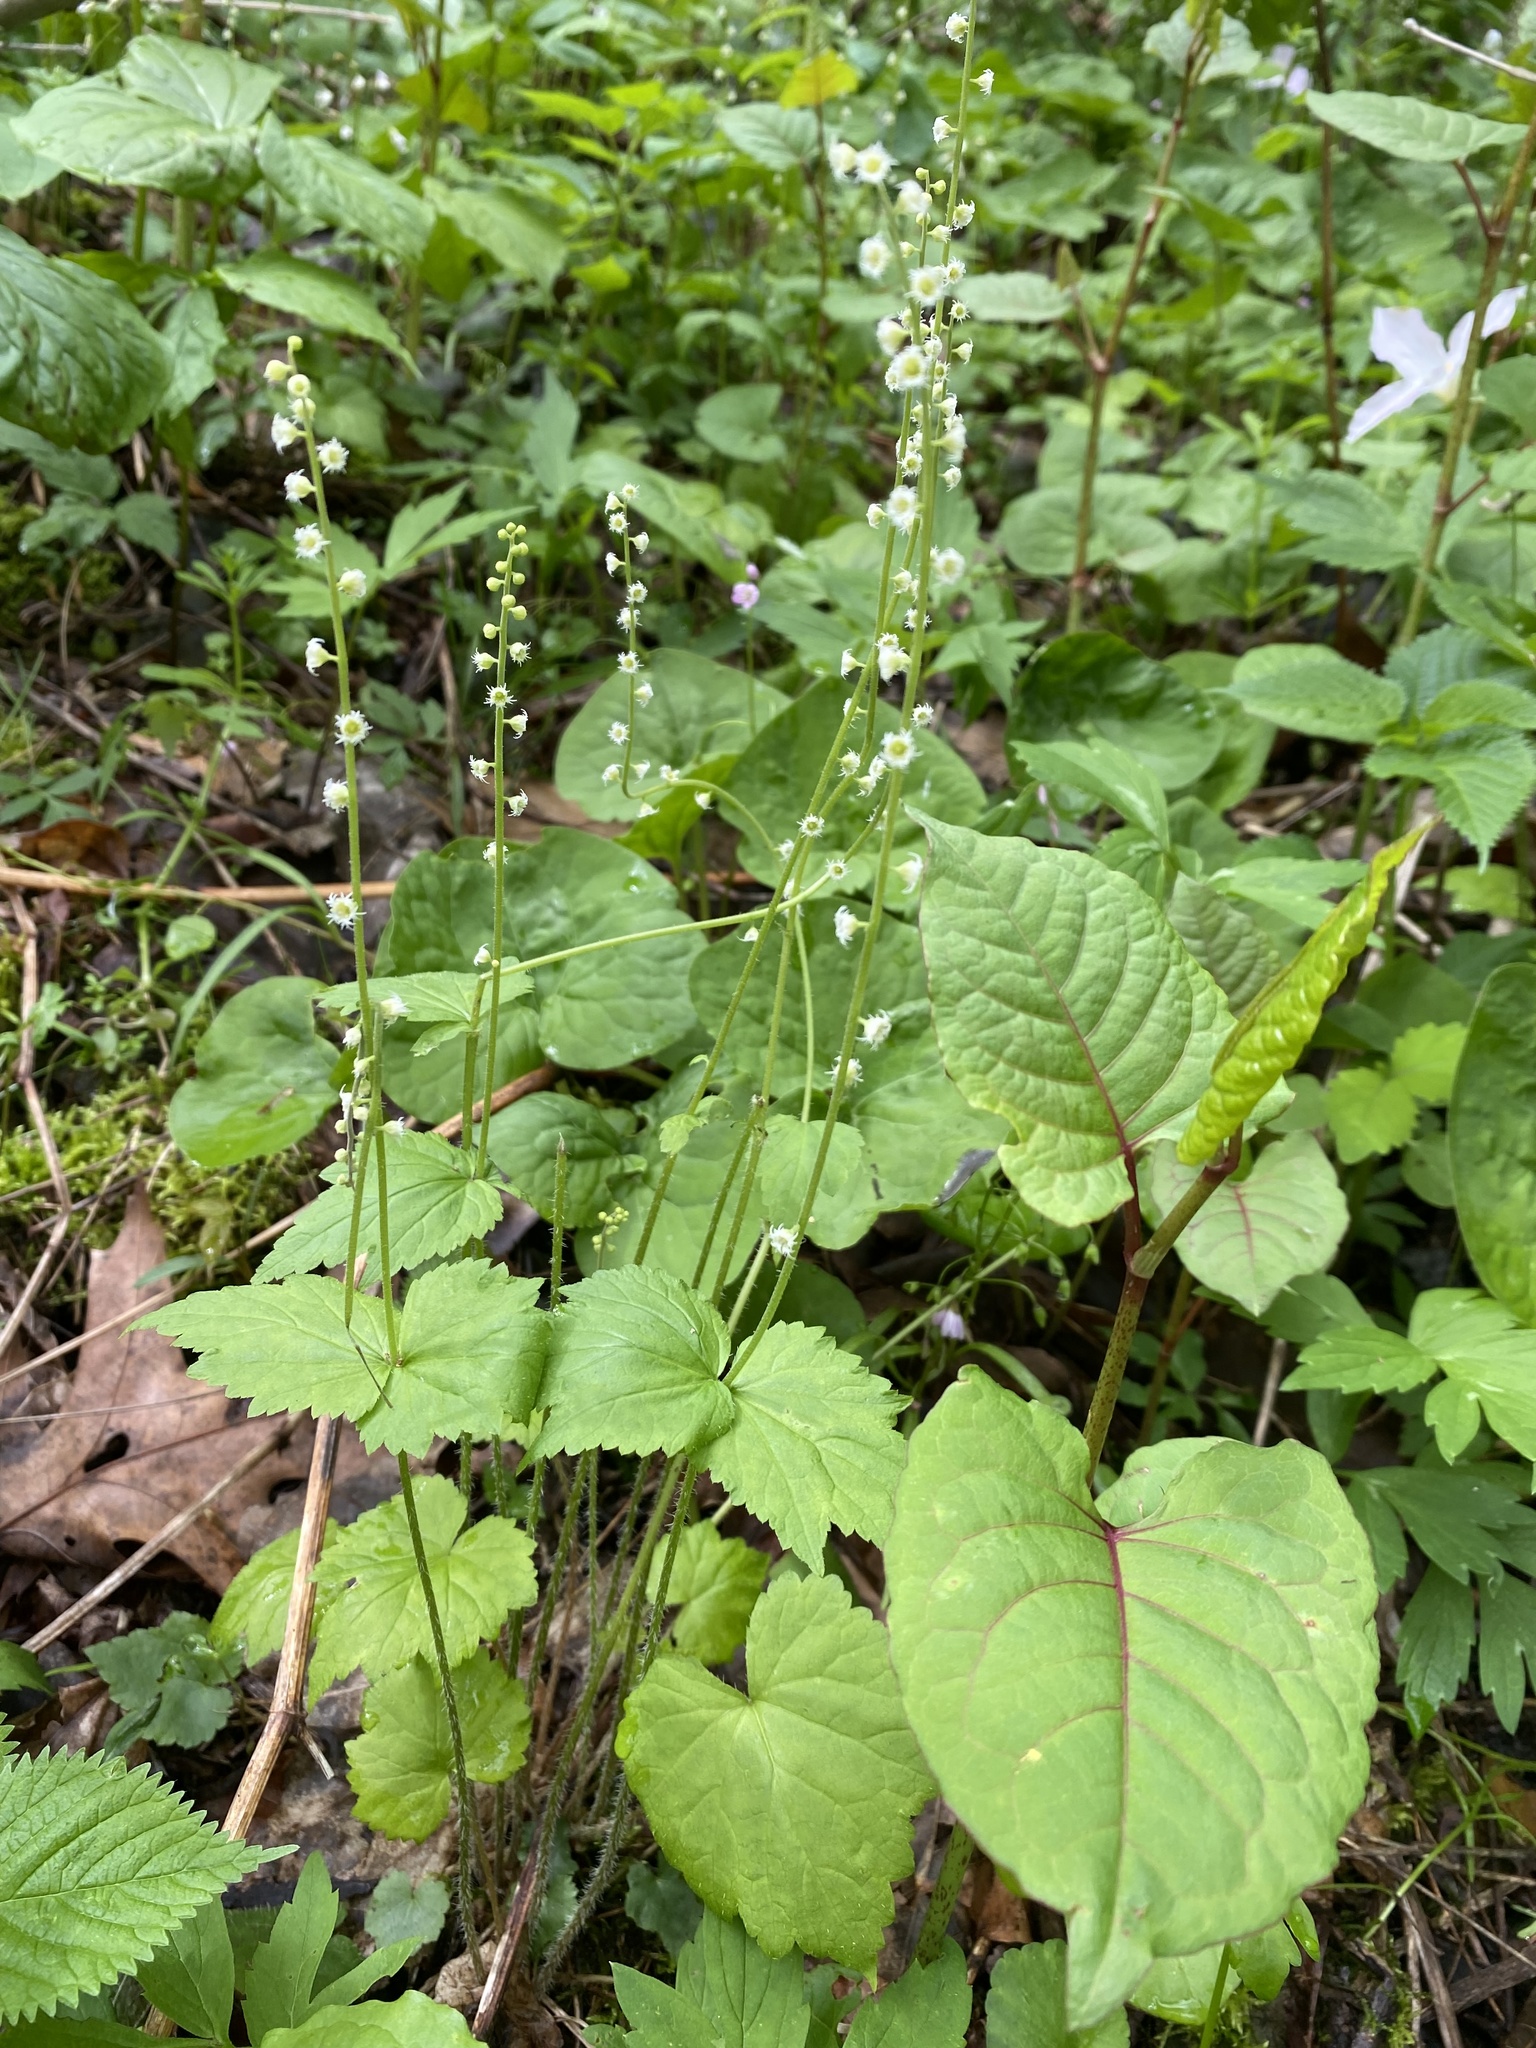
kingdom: Plantae
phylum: Tracheophyta
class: Magnoliopsida
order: Saxifragales
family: Saxifragaceae
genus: Mitella
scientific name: Mitella diphylla
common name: Coolwort
